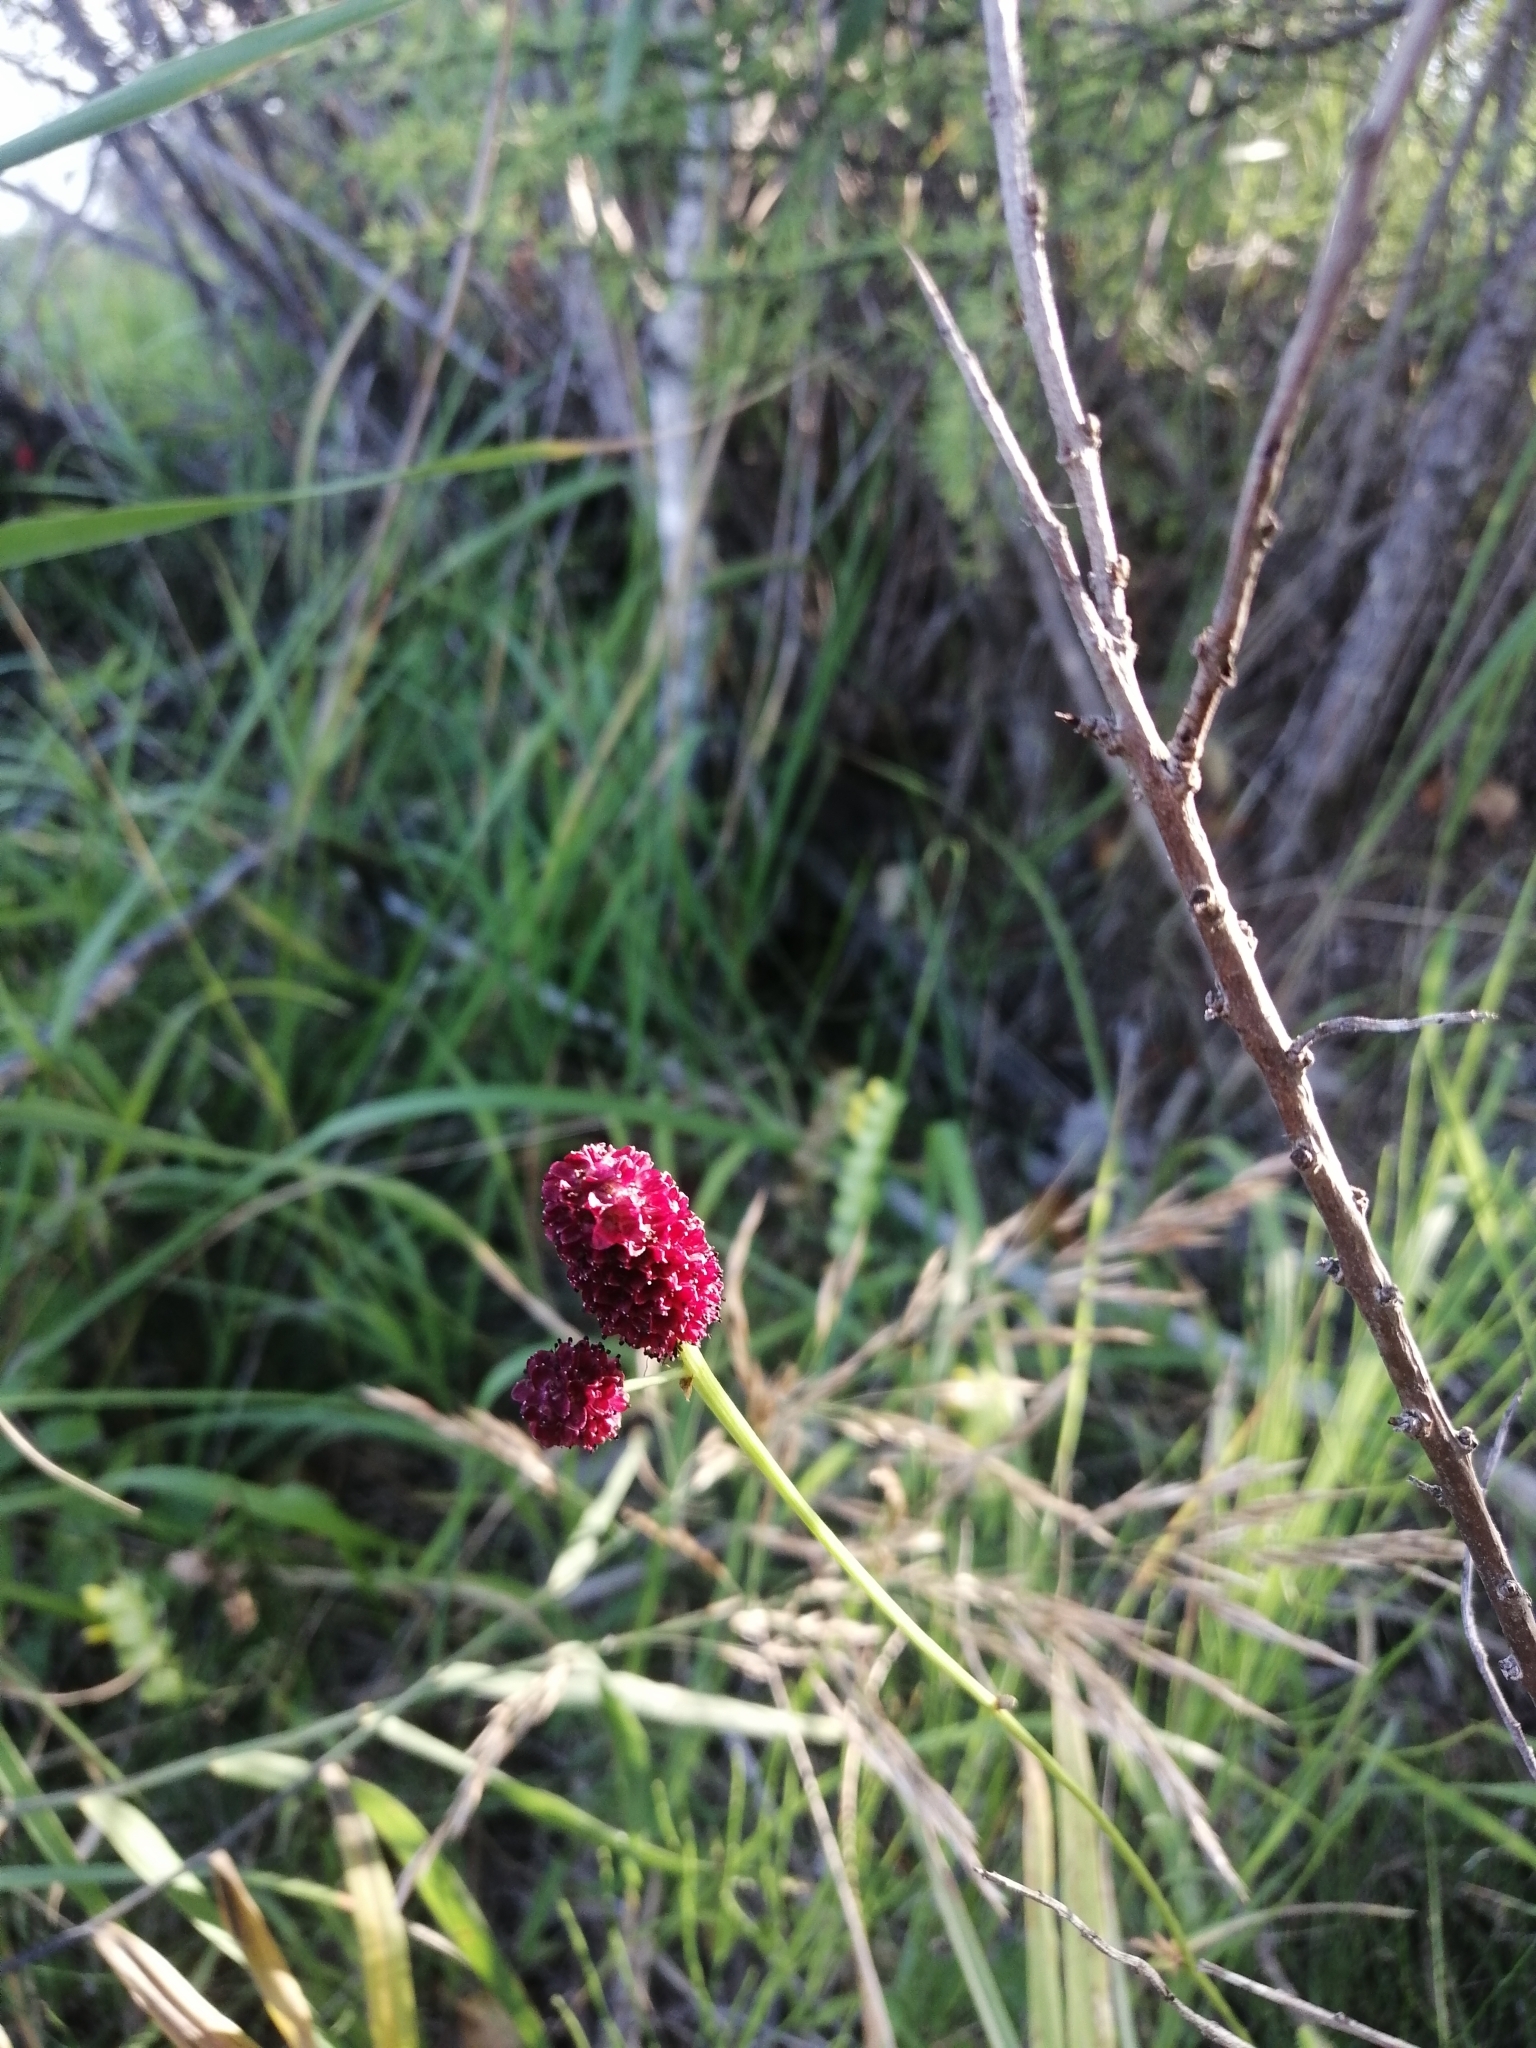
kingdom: Plantae
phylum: Tracheophyta
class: Magnoliopsida
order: Rosales
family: Rosaceae
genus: Sanguisorba
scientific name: Sanguisorba officinalis
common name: Great burnet
